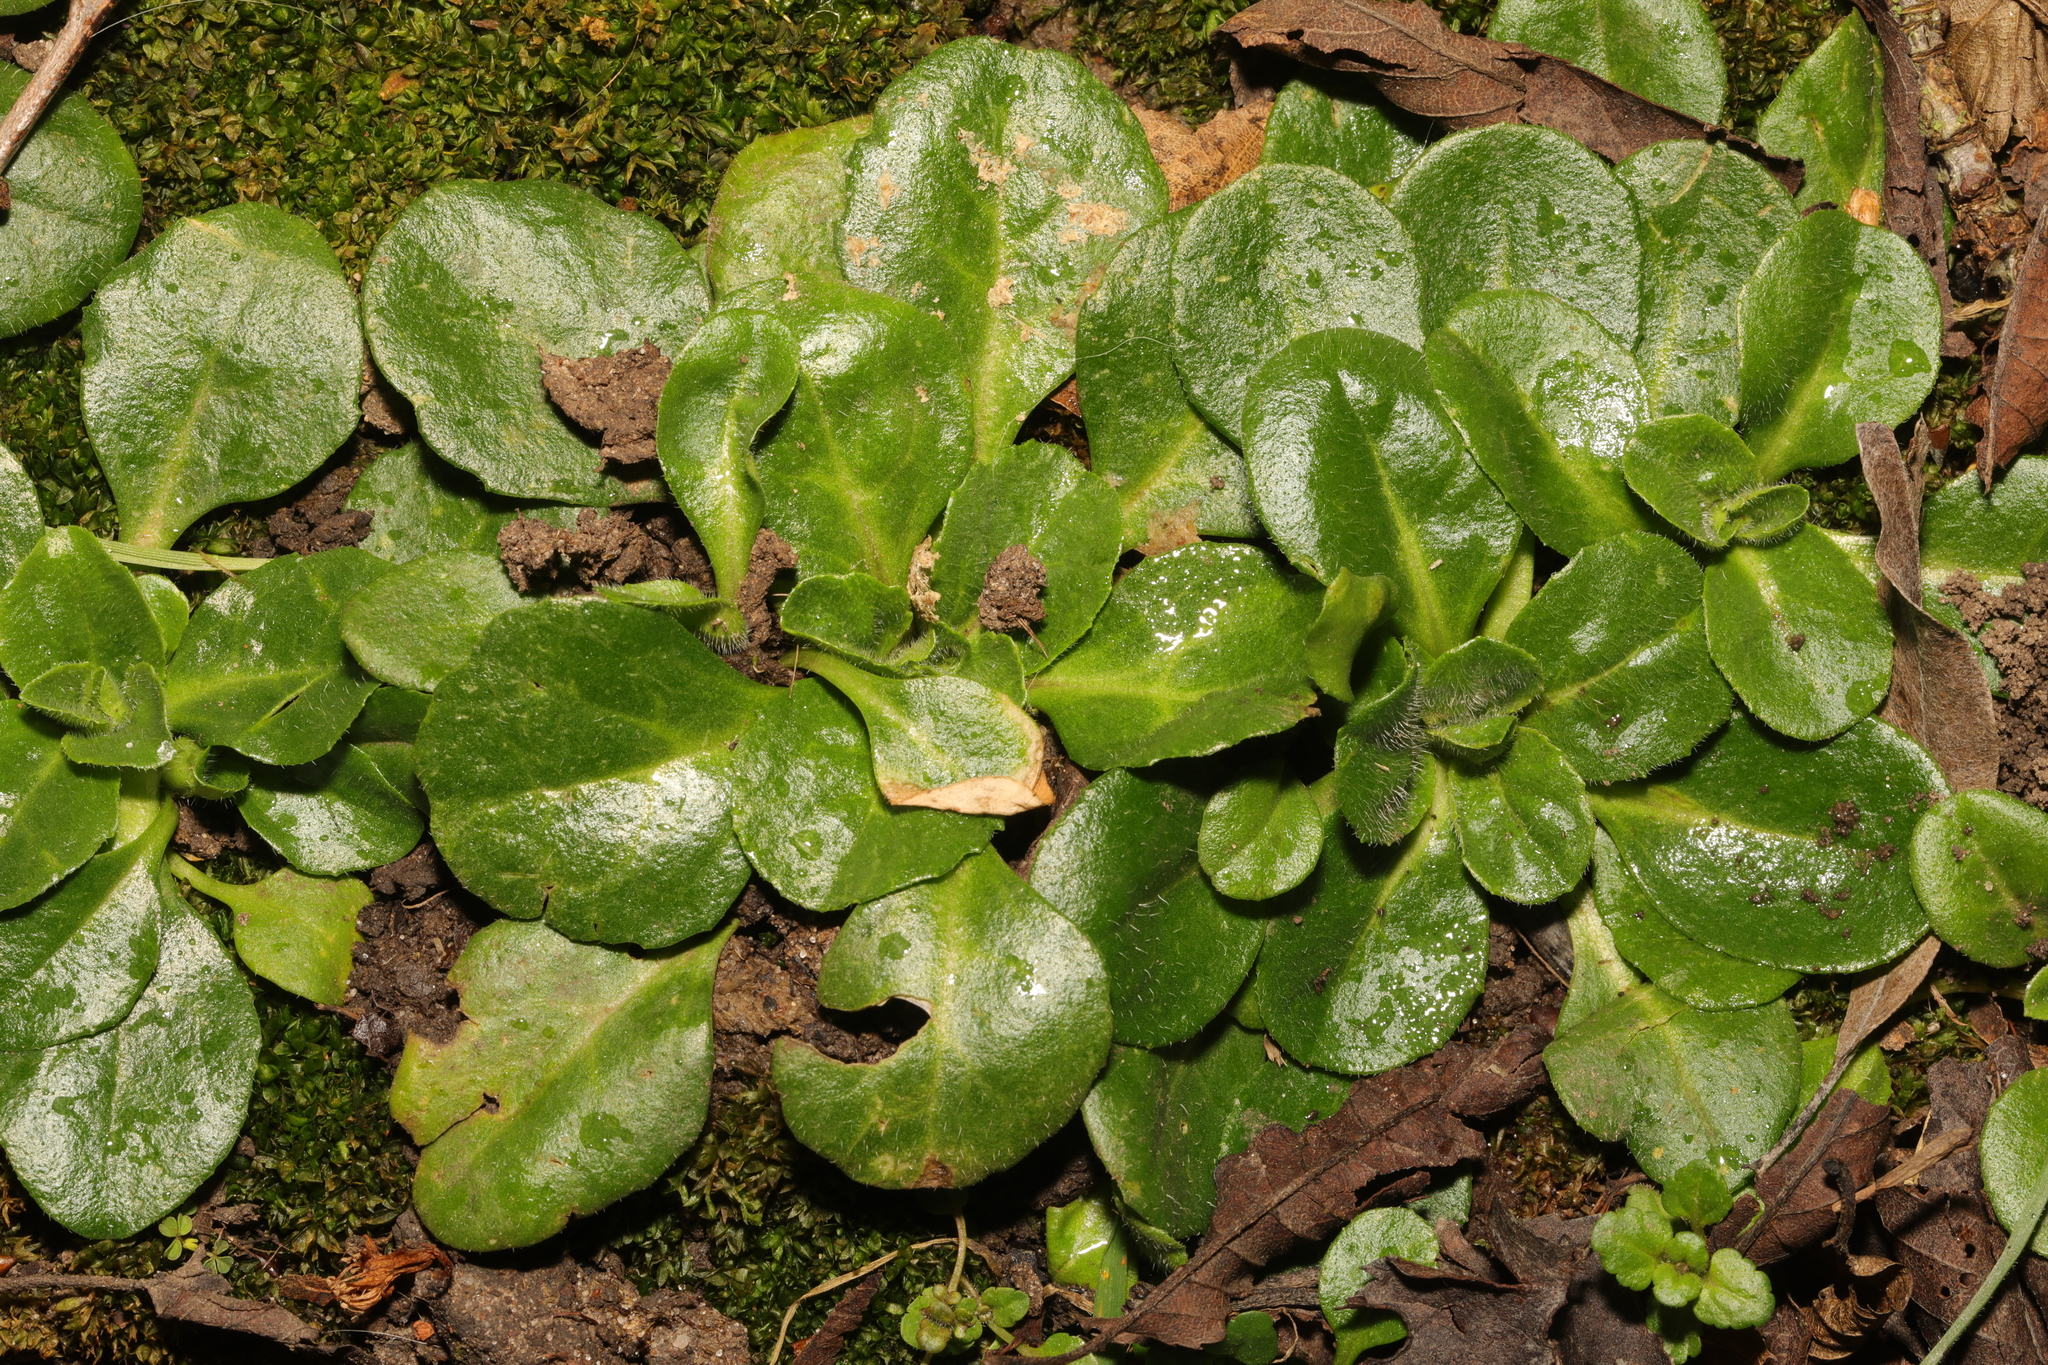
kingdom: Plantae
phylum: Tracheophyta
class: Magnoliopsida
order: Asterales
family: Asteraceae
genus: Bellis
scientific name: Bellis perennis
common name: Lawndaisy
